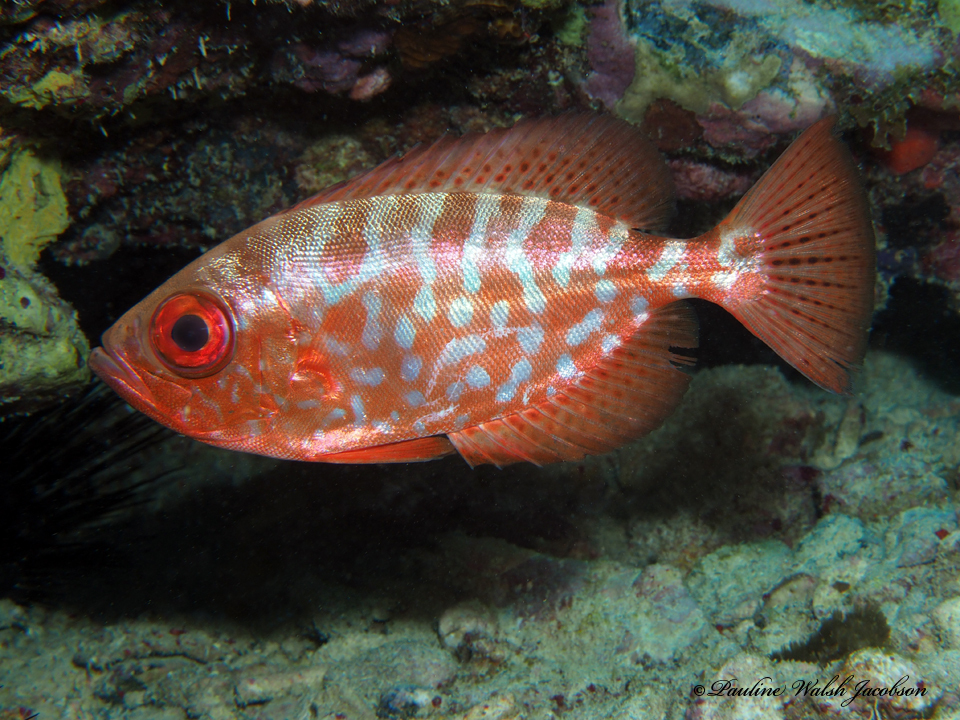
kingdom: Animalia
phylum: Chordata
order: Perciformes
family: Priacanthidae
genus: Heteropriacanthus
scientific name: Heteropriacanthus cruentatus
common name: Glasseye
